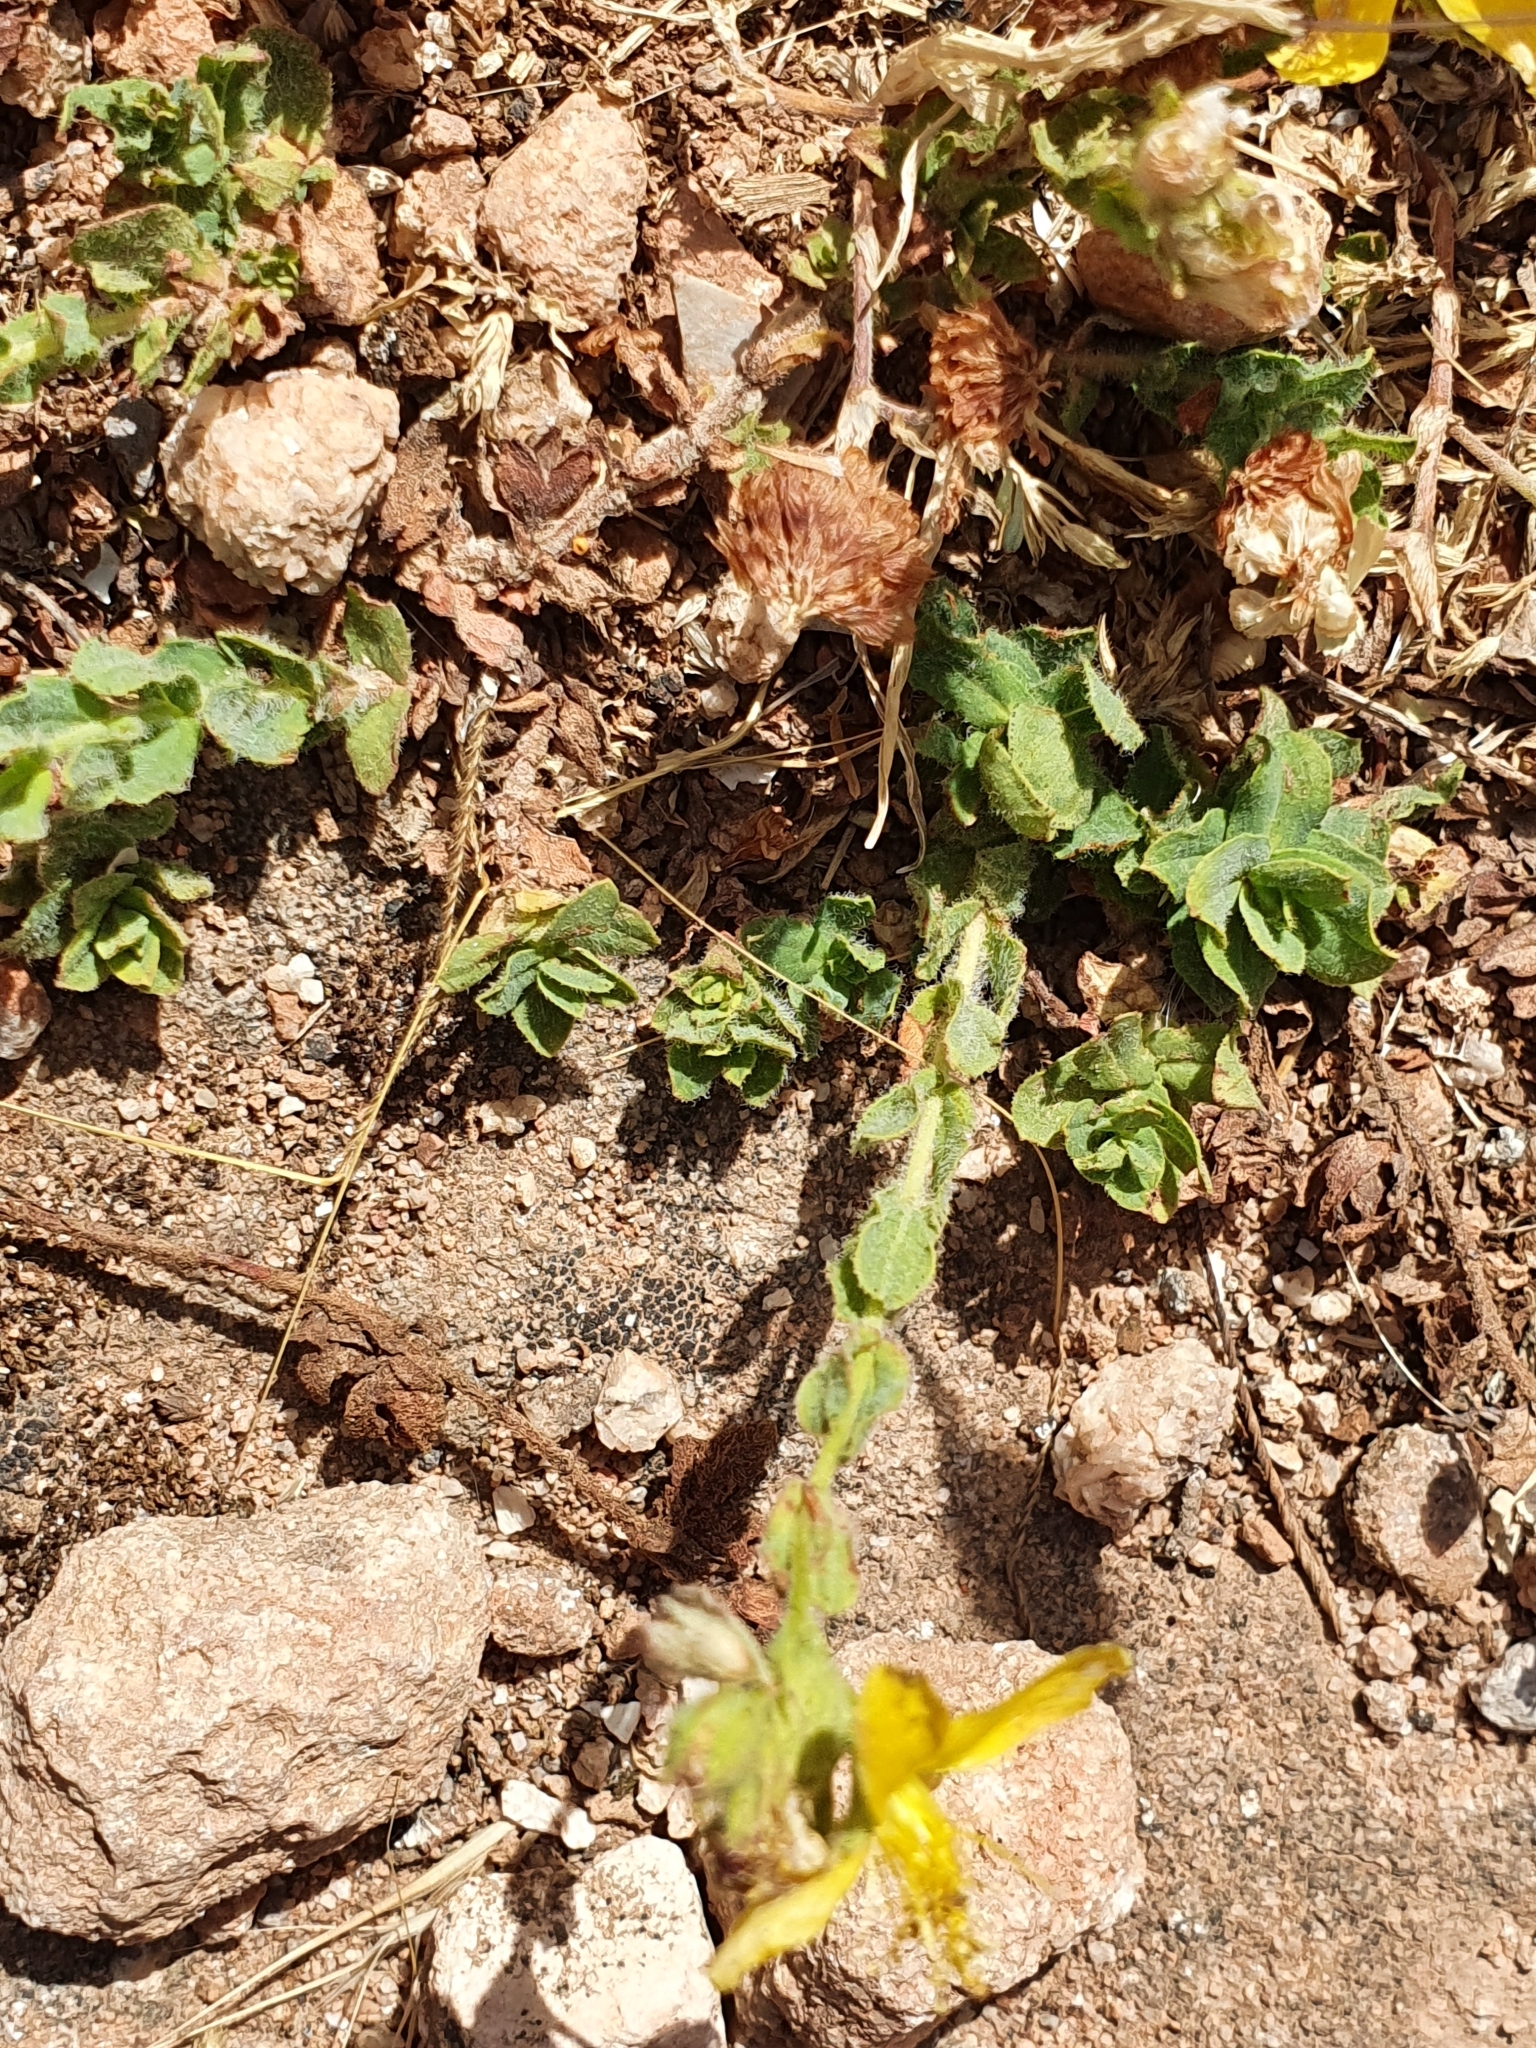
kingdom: Plantae
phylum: Tracheophyta
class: Magnoliopsida
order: Malpighiales
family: Hypericaceae
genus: Hypericum
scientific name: Hypericum pubescens
